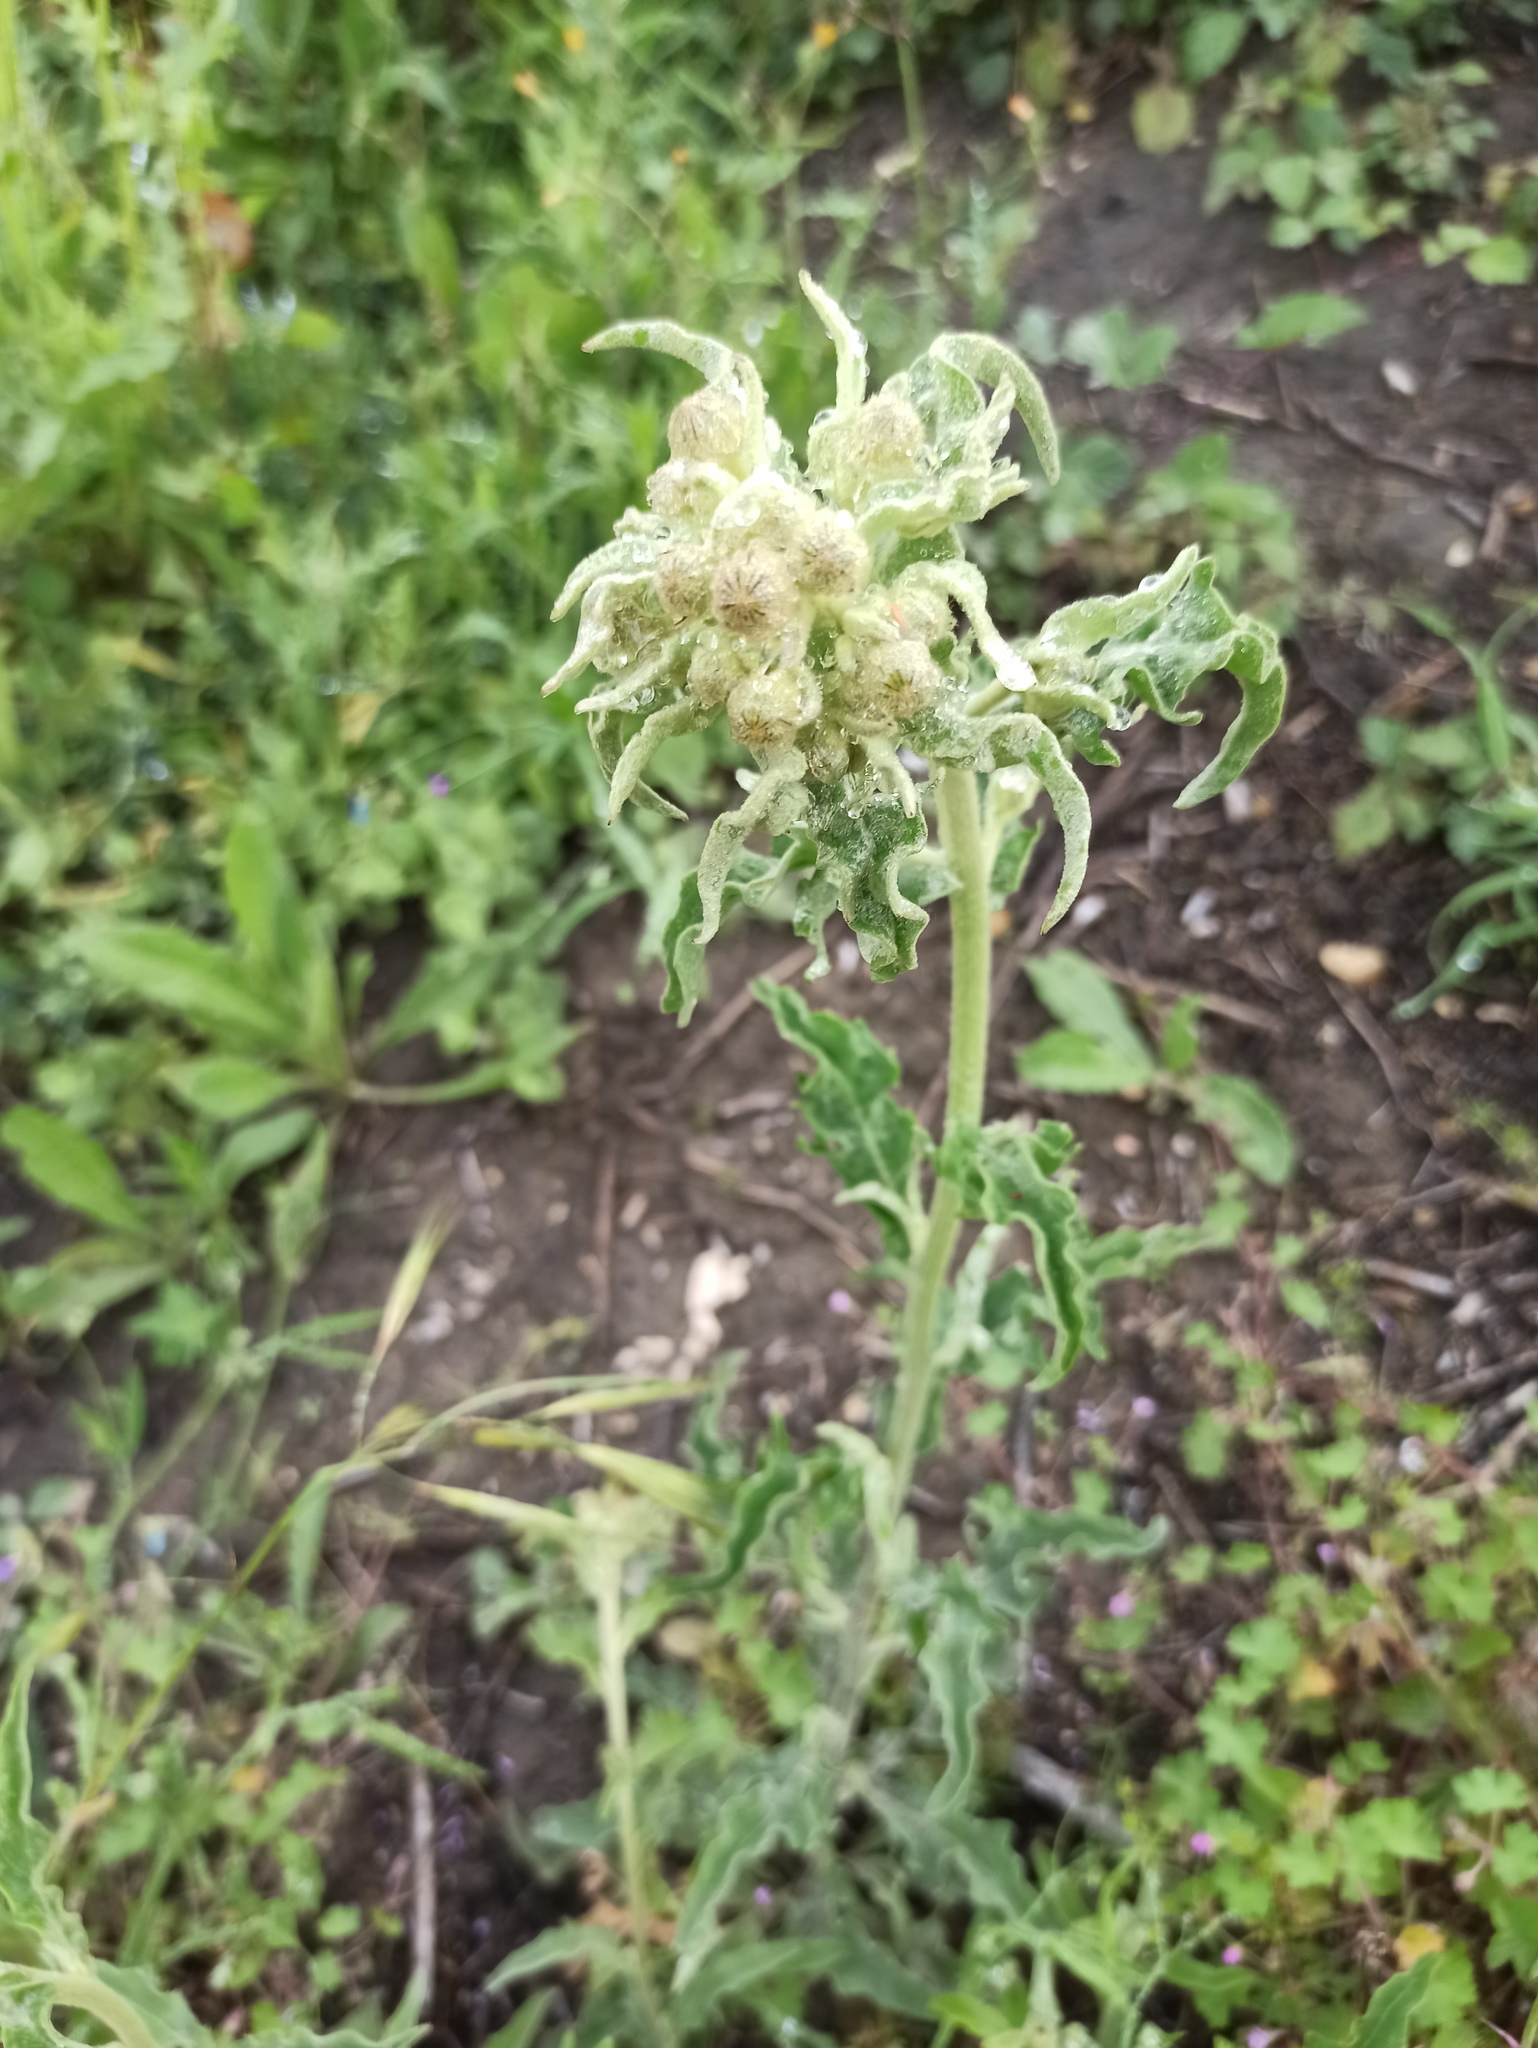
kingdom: Plantae
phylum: Tracheophyta
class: Magnoliopsida
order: Asterales
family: Asteraceae
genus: Andryala
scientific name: Andryala integrifolia
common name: Common andryala
